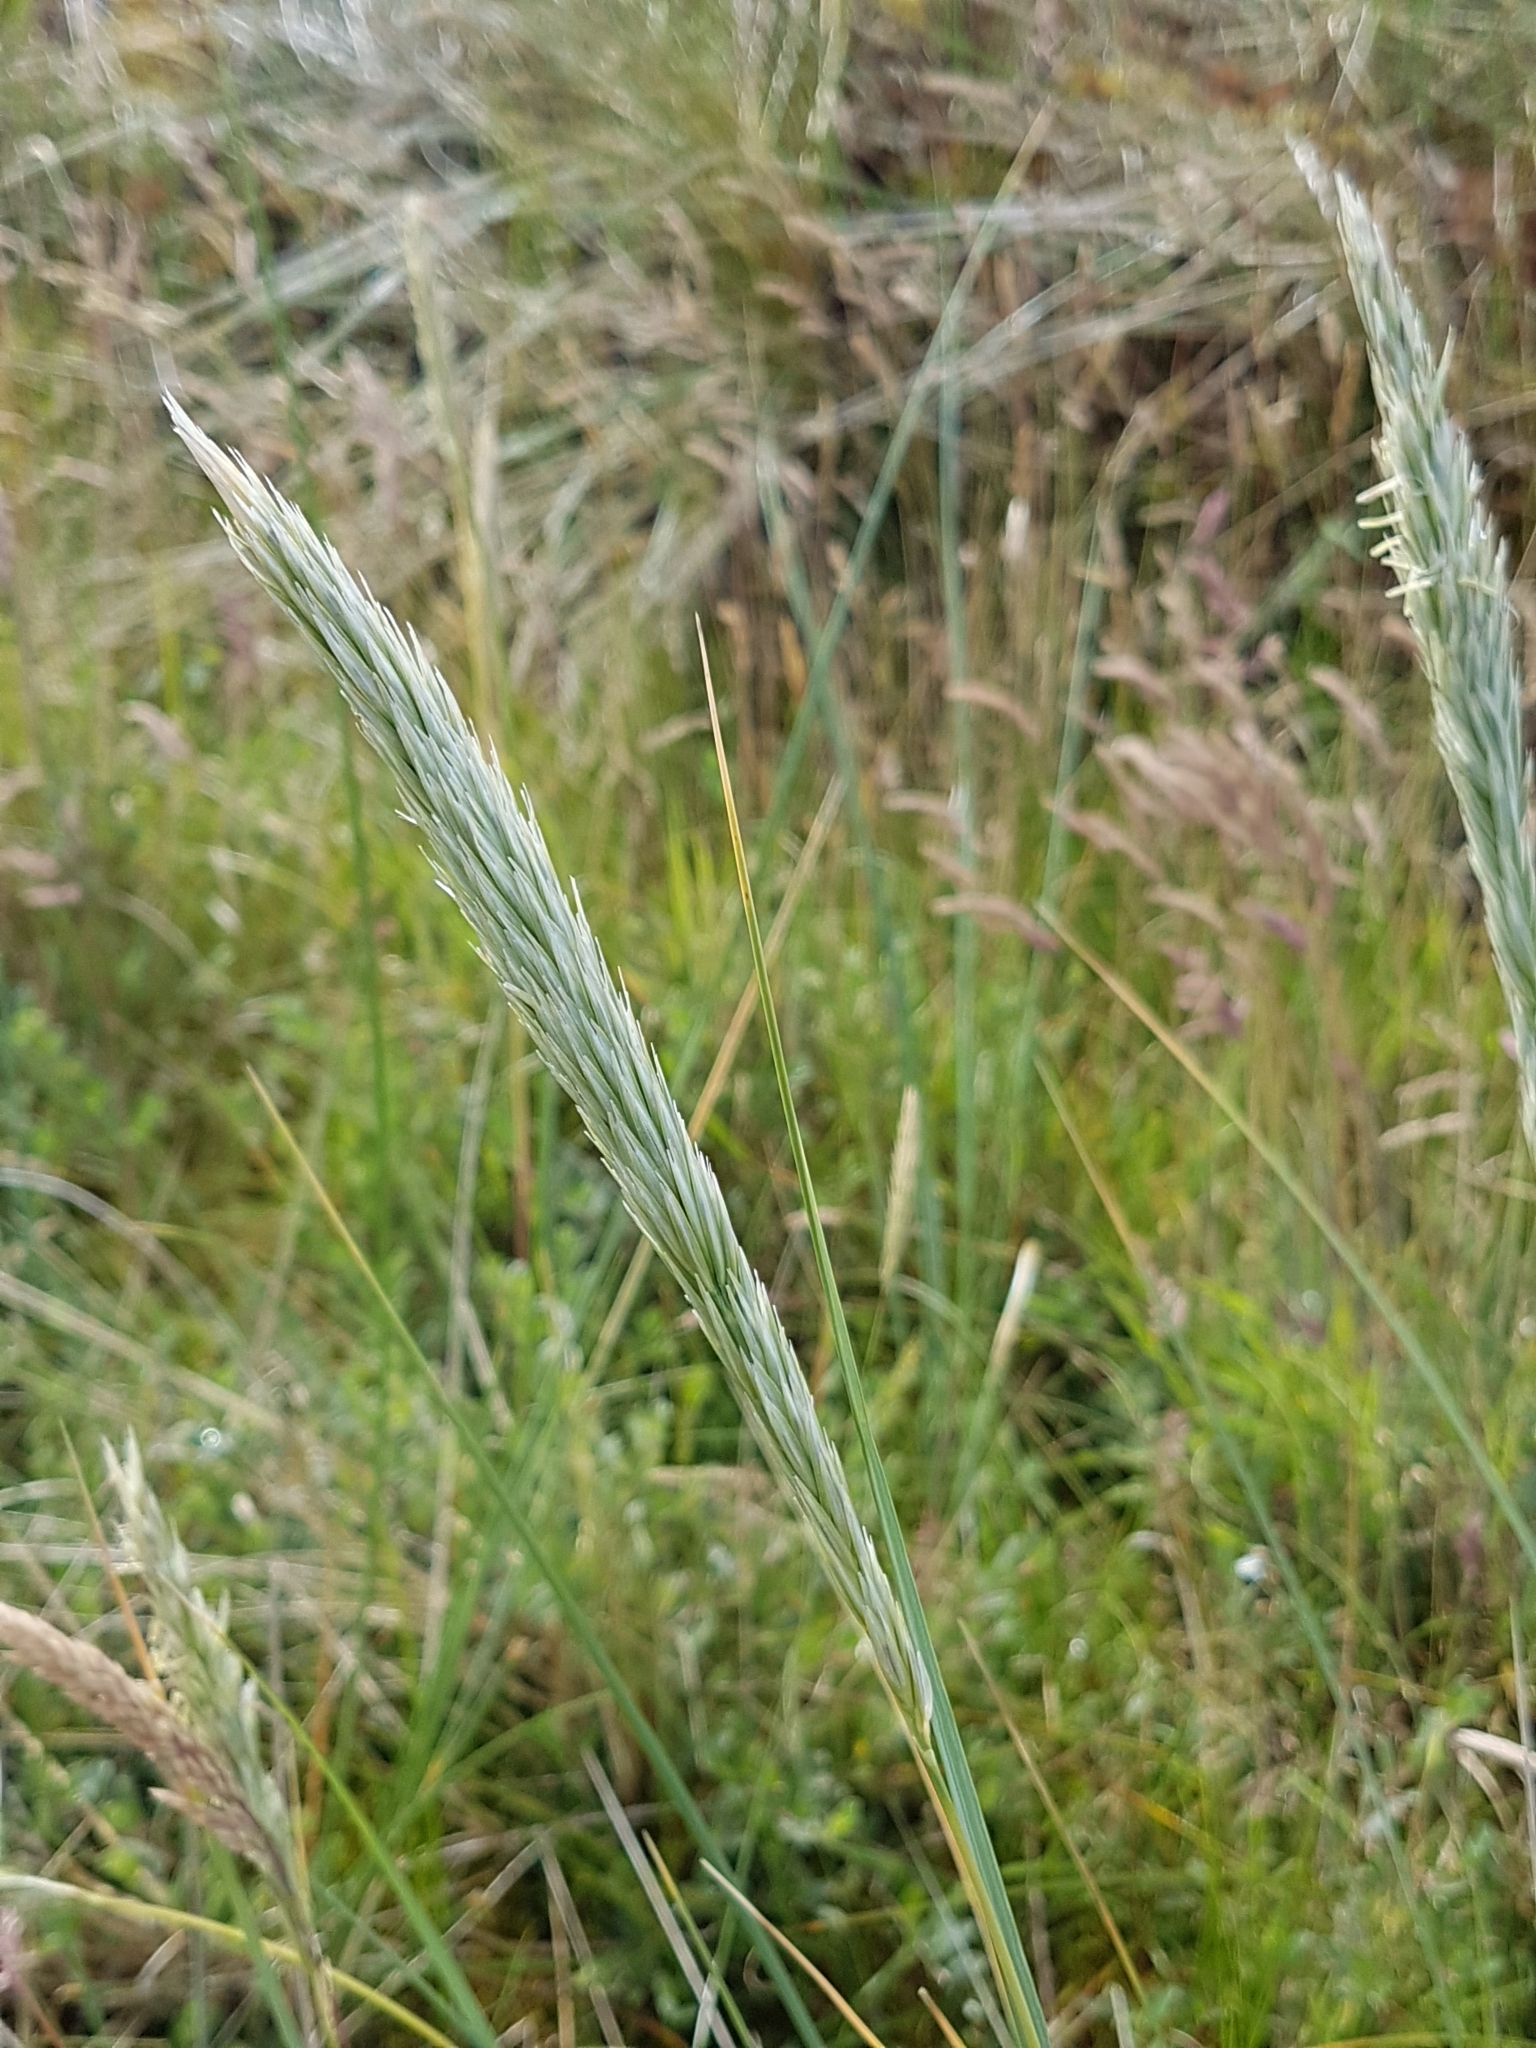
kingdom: Plantae
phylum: Tracheophyta
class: Liliopsida
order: Poales
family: Poaceae
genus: Calamagrostis
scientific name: Calamagrostis arenaria
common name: European beachgrass
